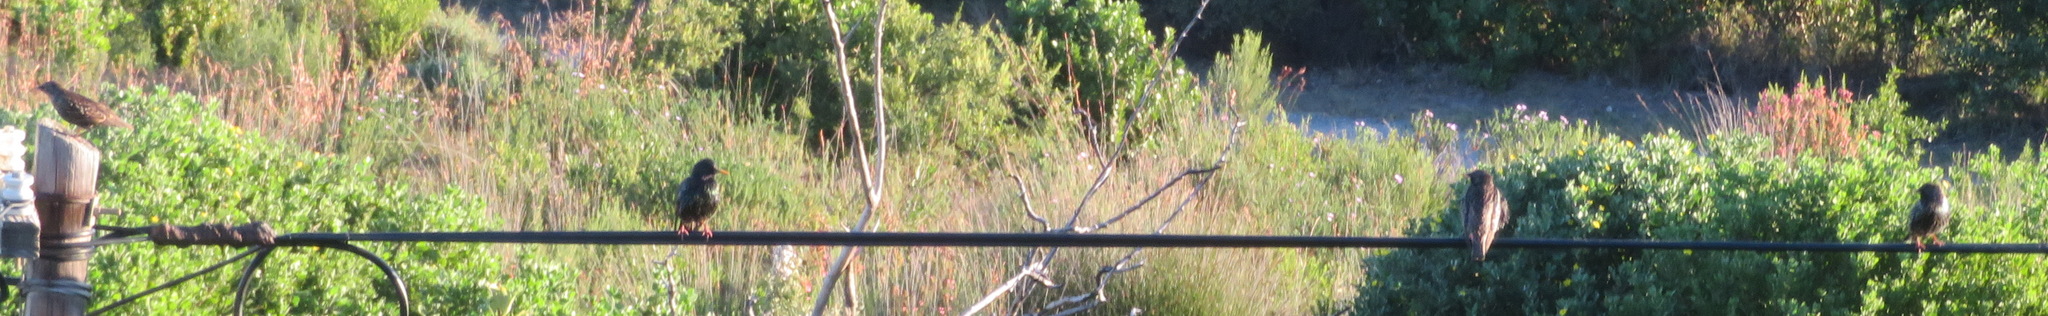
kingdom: Animalia
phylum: Chordata
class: Aves
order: Passeriformes
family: Sturnidae
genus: Sturnus
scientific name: Sturnus vulgaris
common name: Common starling
